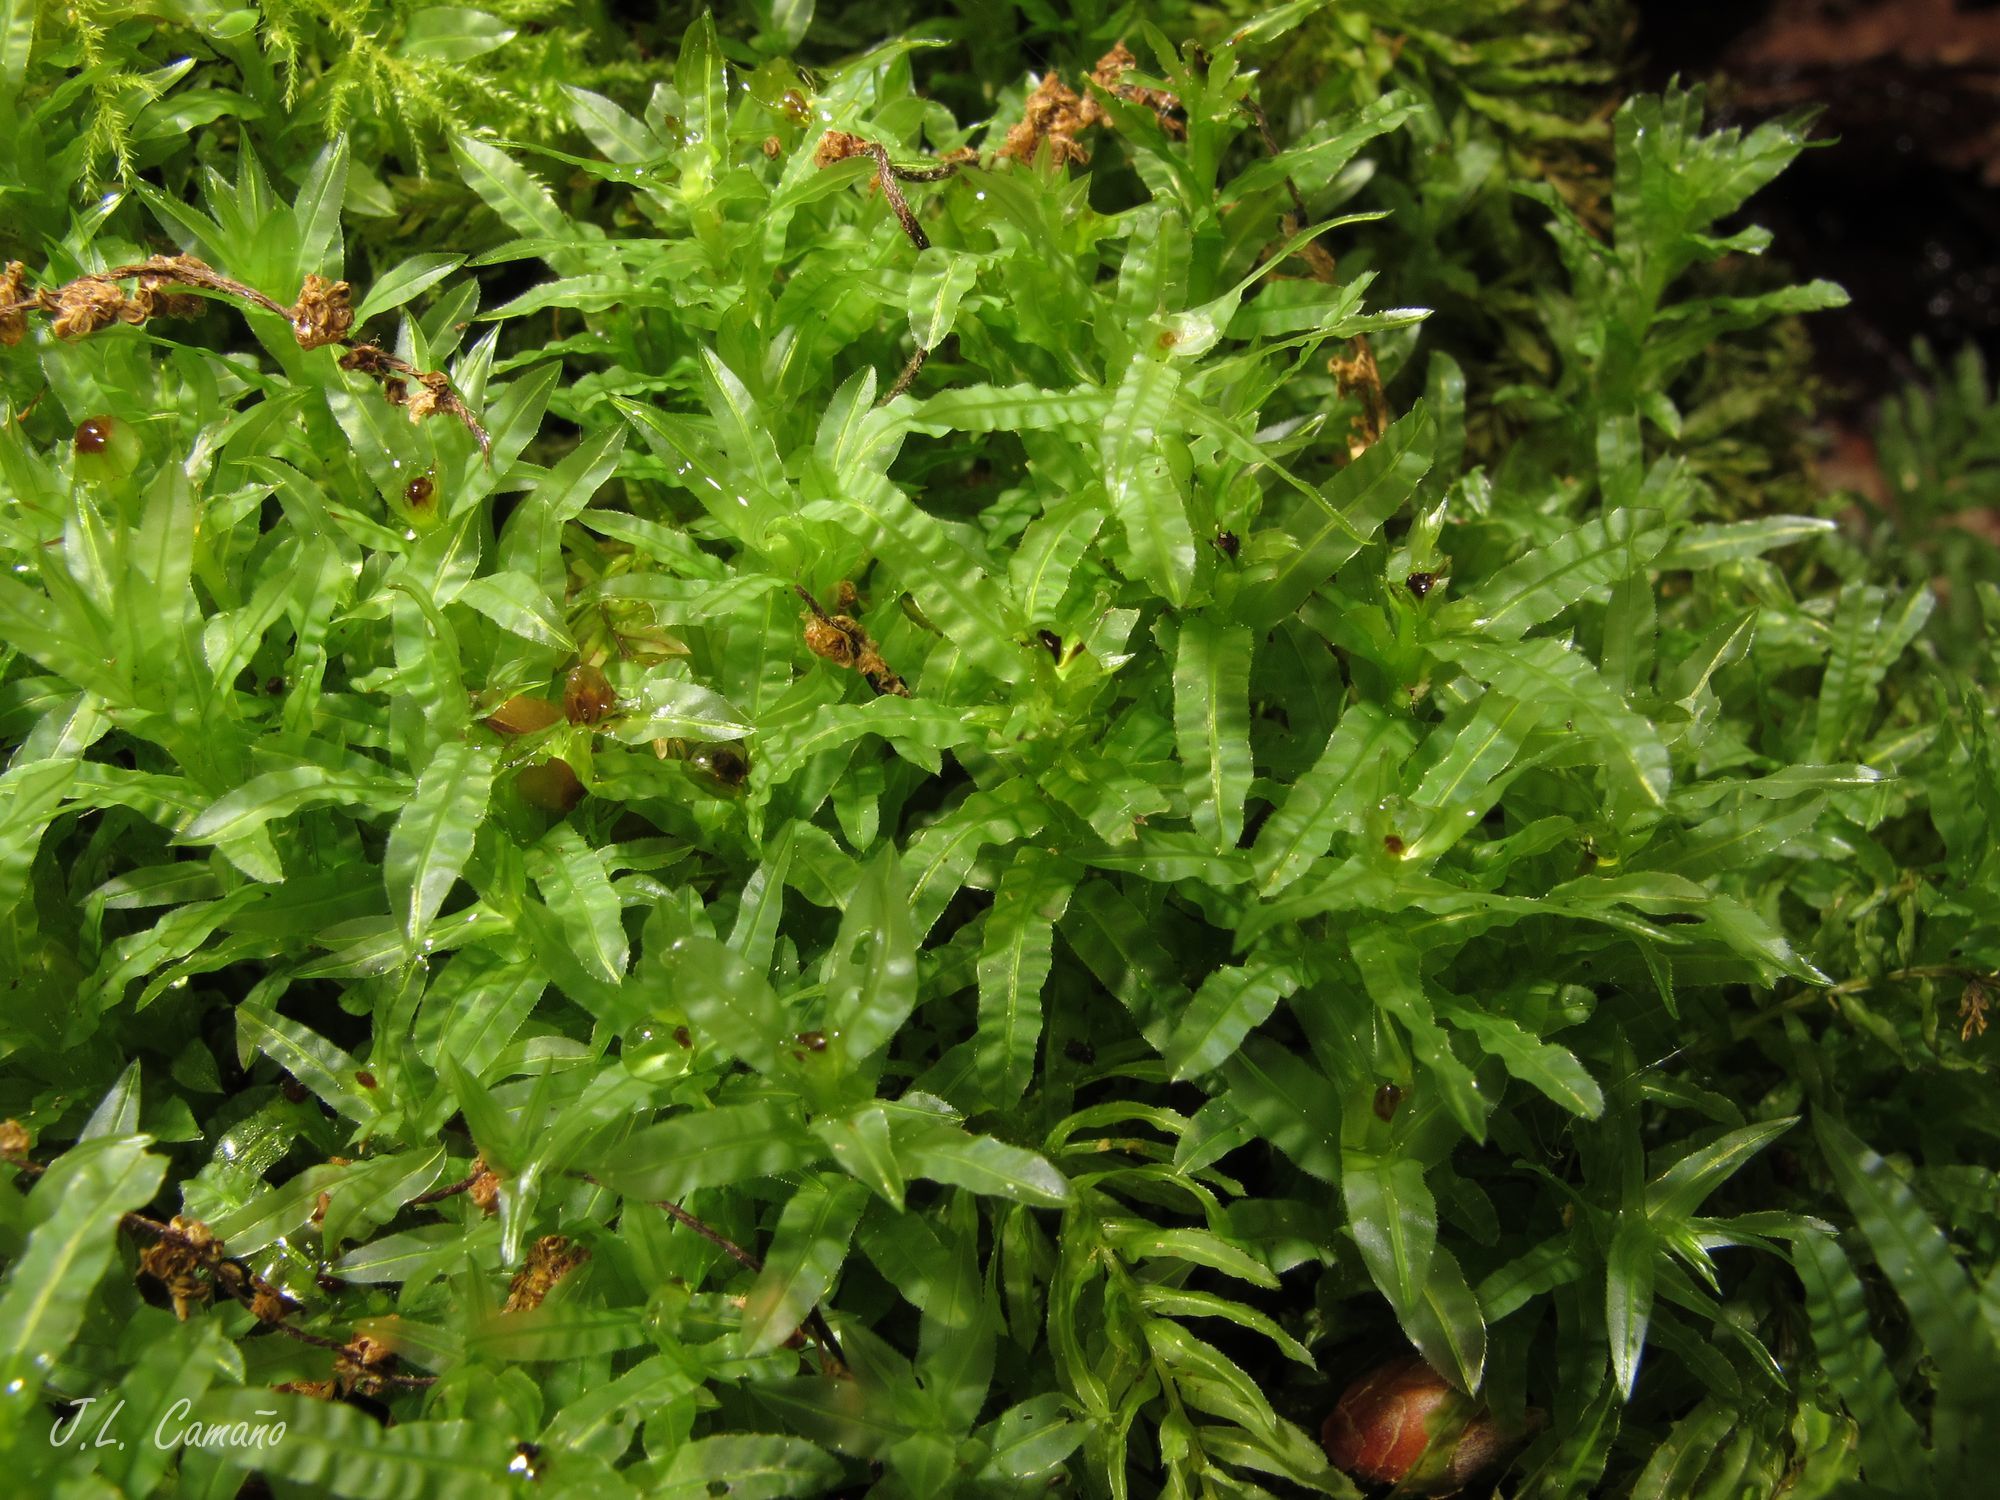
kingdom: Plantae
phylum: Bryophyta
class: Bryopsida
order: Bryales
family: Mniaceae
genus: Plagiomnium
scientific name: Plagiomnium undulatum
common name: Hart's-tongue thyme-moss
